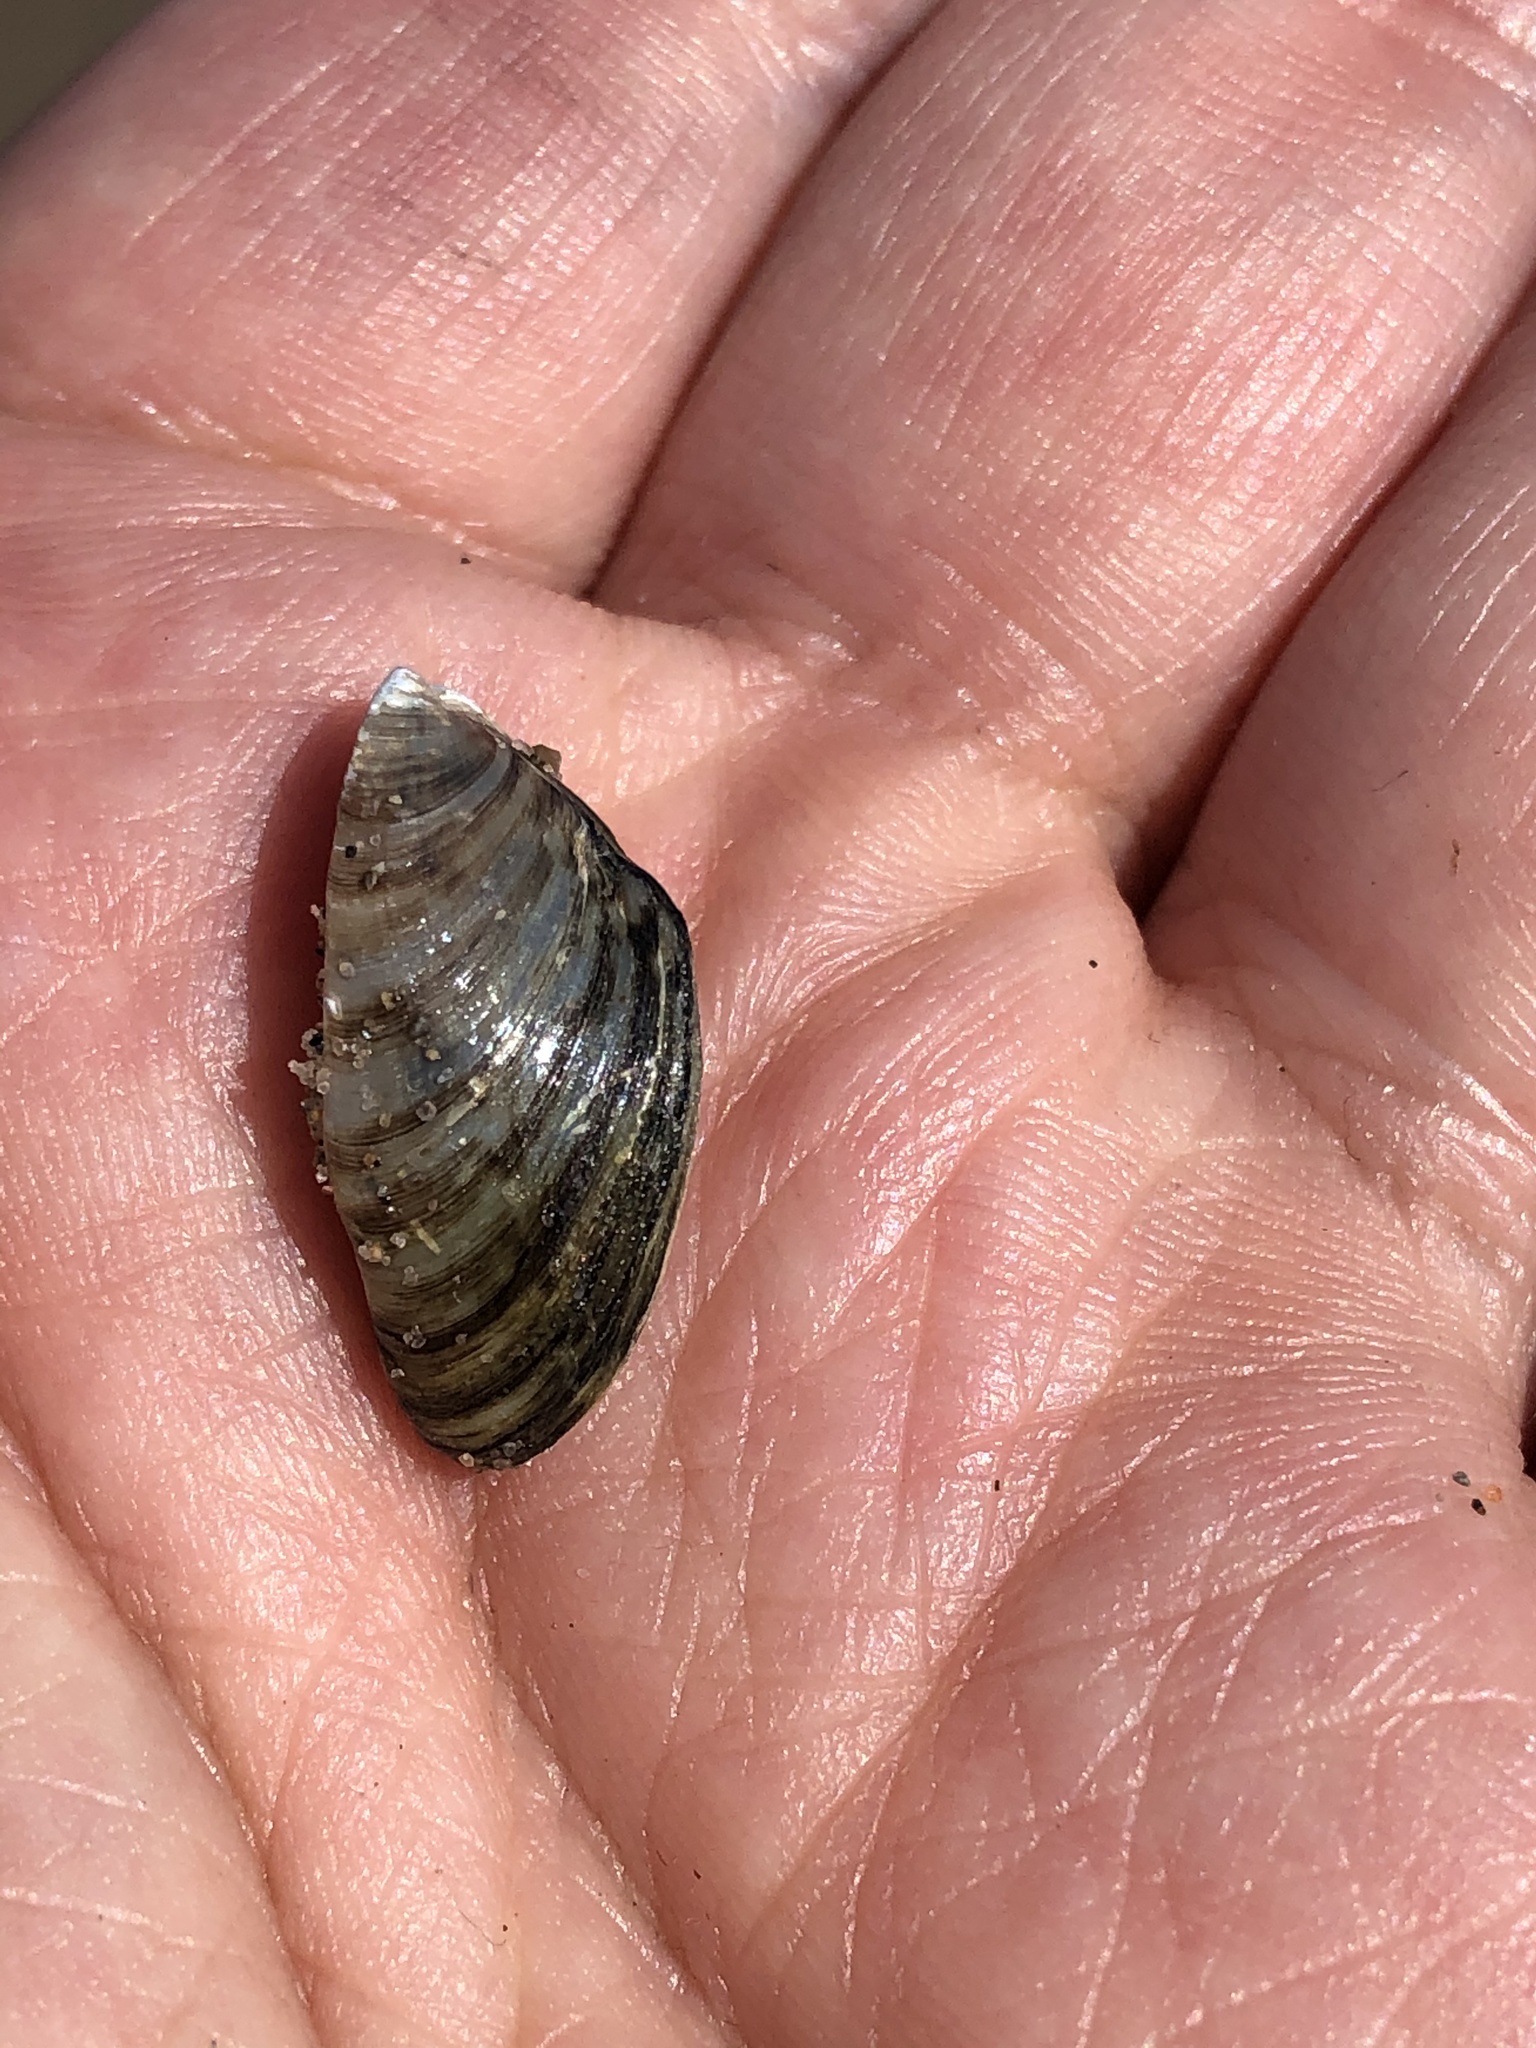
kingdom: Animalia
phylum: Mollusca
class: Bivalvia
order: Myida
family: Dreissenidae
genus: Dreissena
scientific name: Dreissena polymorpha
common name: Zebra mussel
